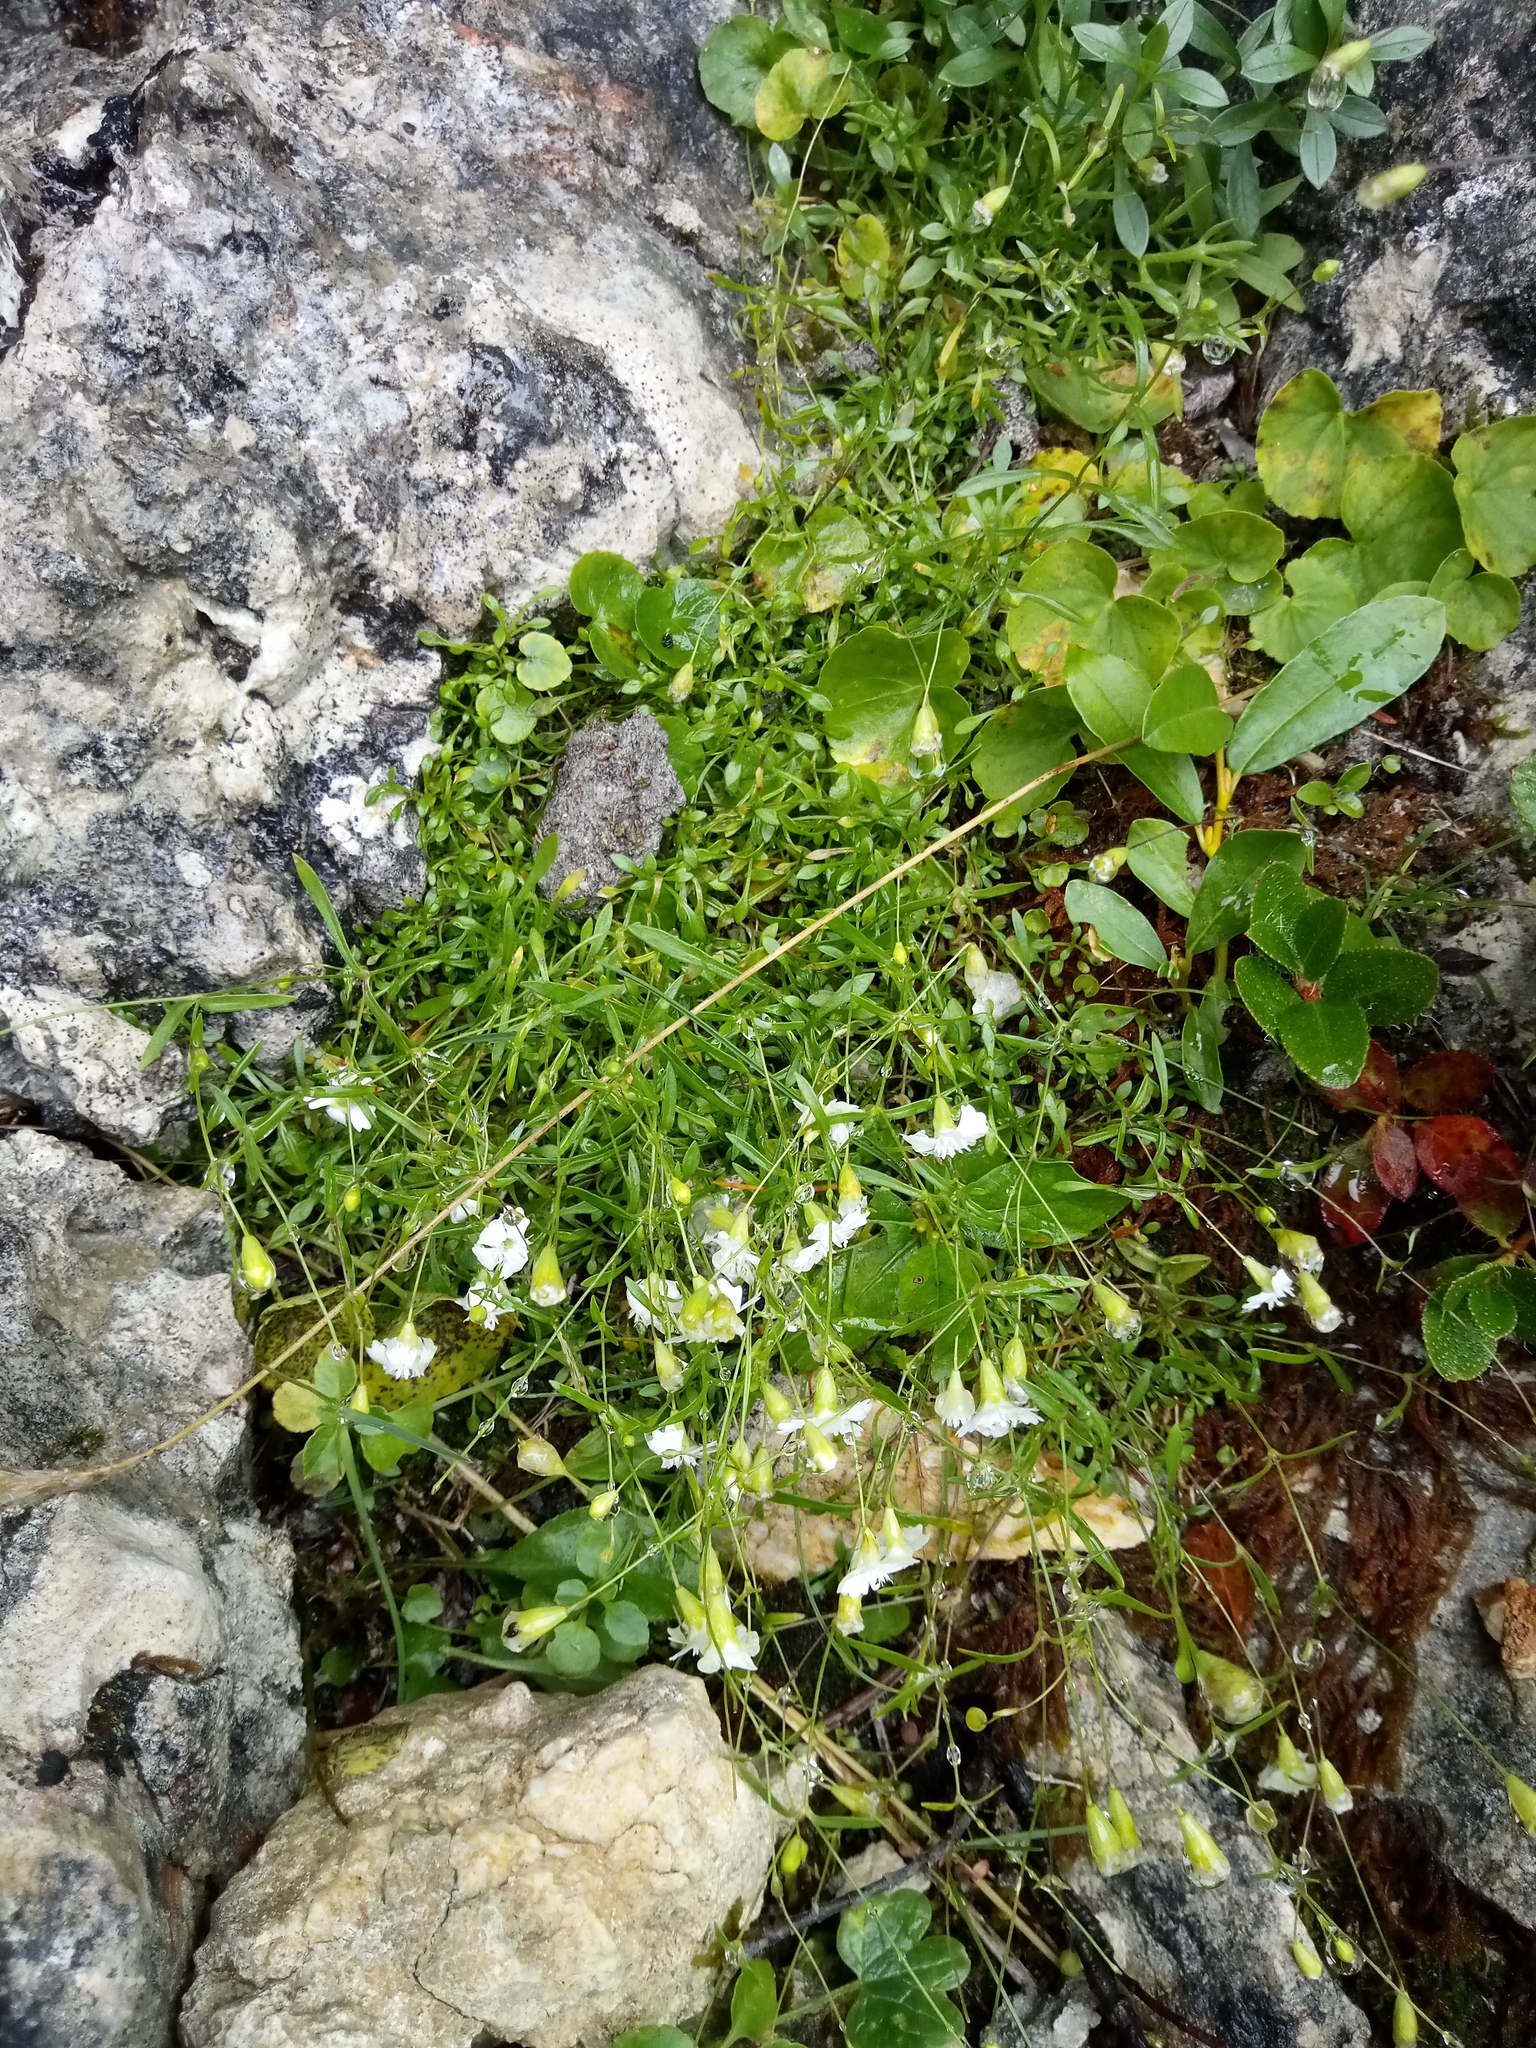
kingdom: Plantae
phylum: Tracheophyta
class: Magnoliopsida
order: Caryophyllales
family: Caryophyllaceae
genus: Heliosperma
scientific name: Heliosperma pusillum
